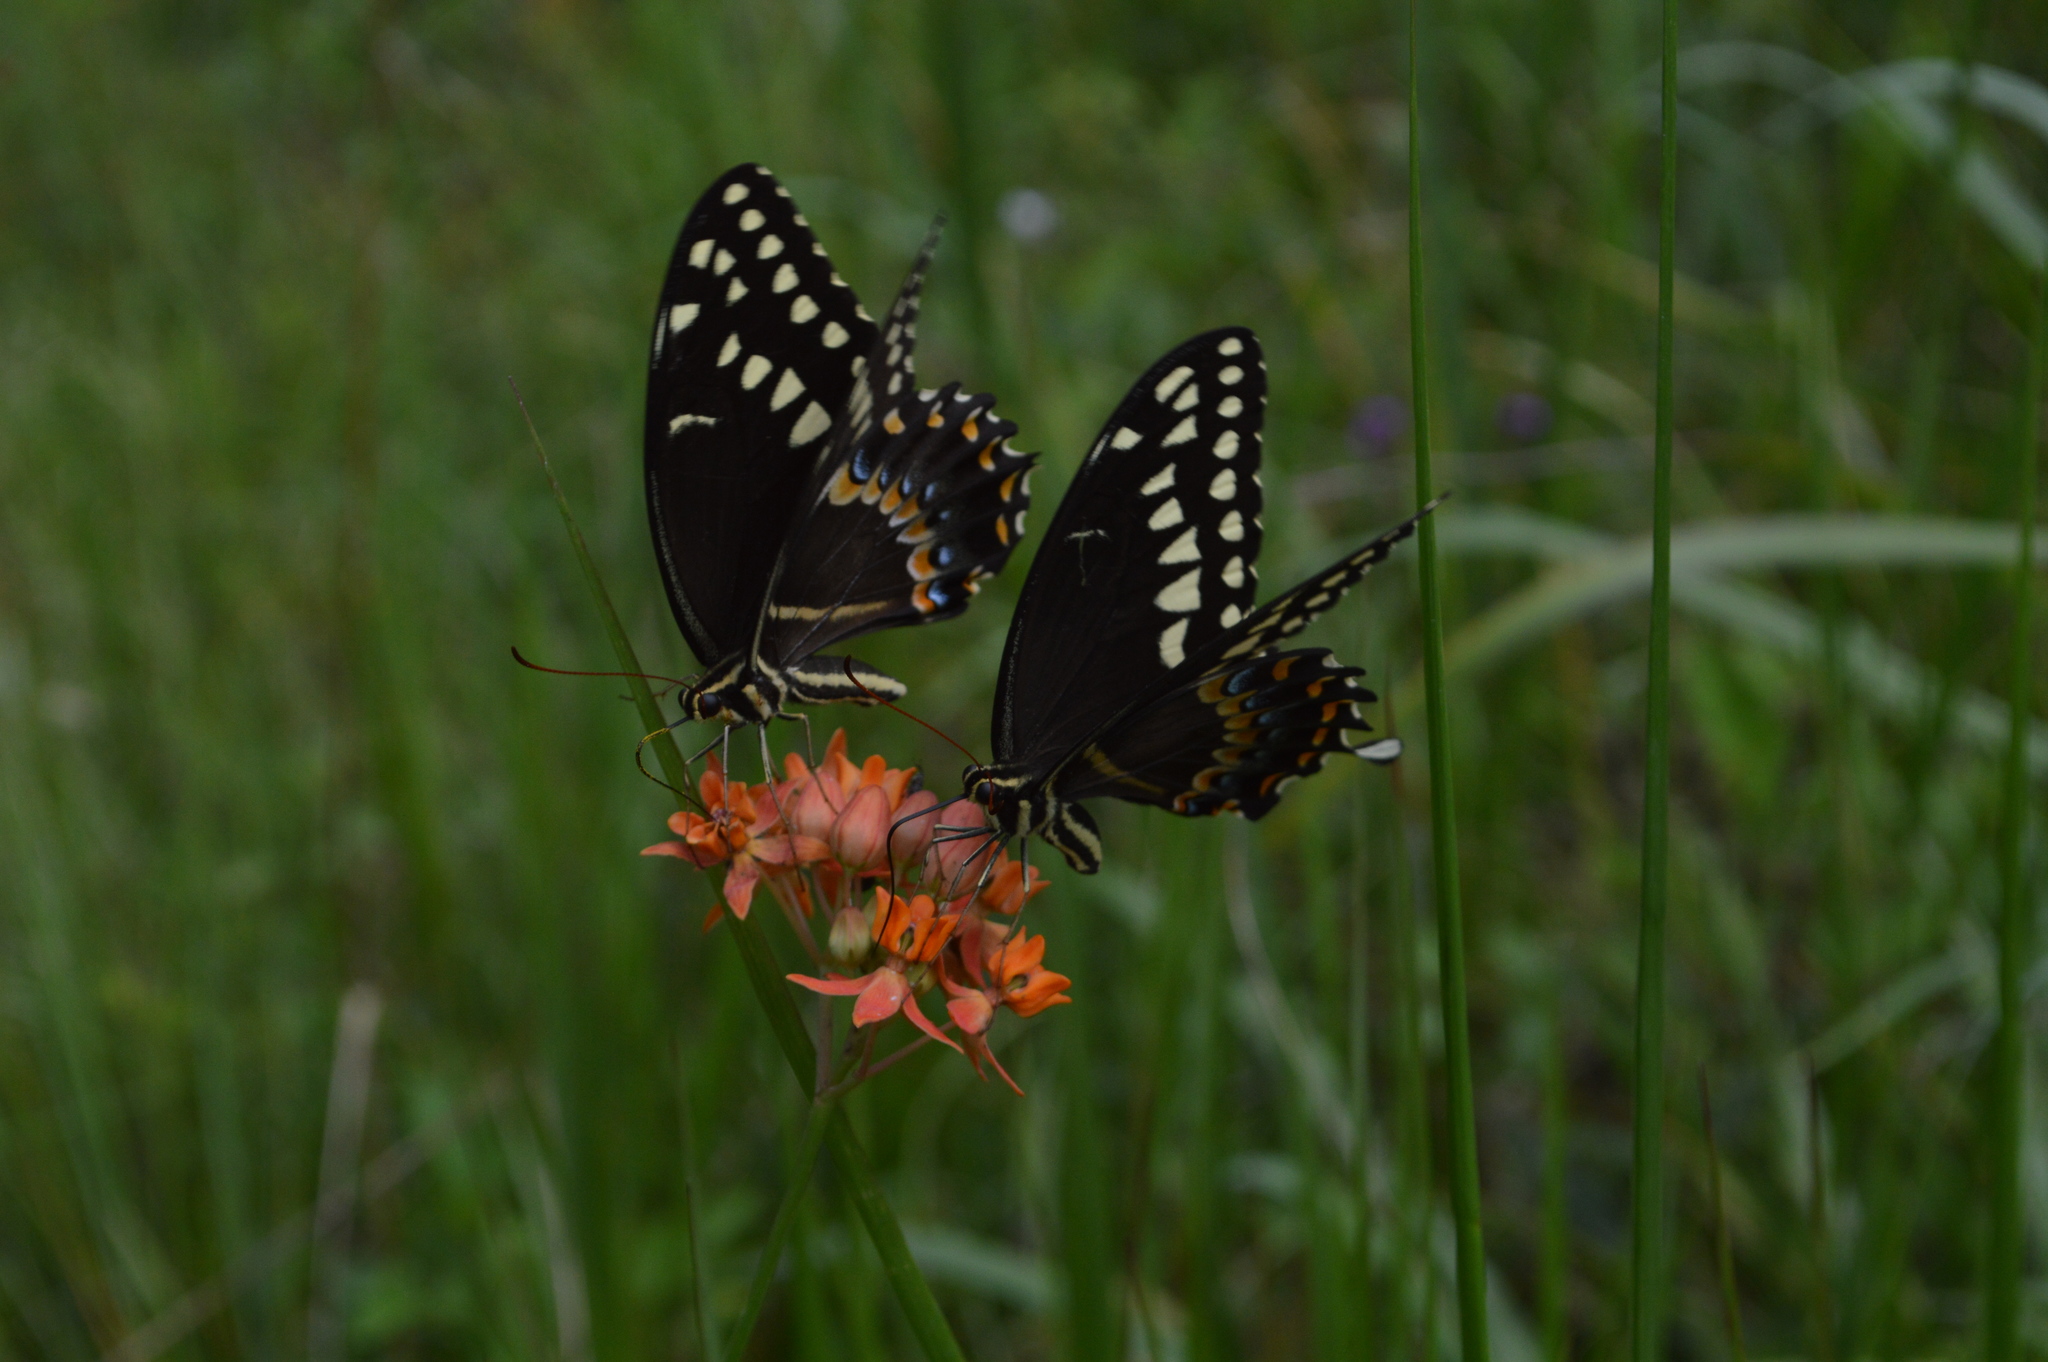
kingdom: Animalia
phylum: Arthropoda
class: Insecta
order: Lepidoptera
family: Papilionidae
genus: Papilio
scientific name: Papilio palamedes
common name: Palamedes swallowtail
